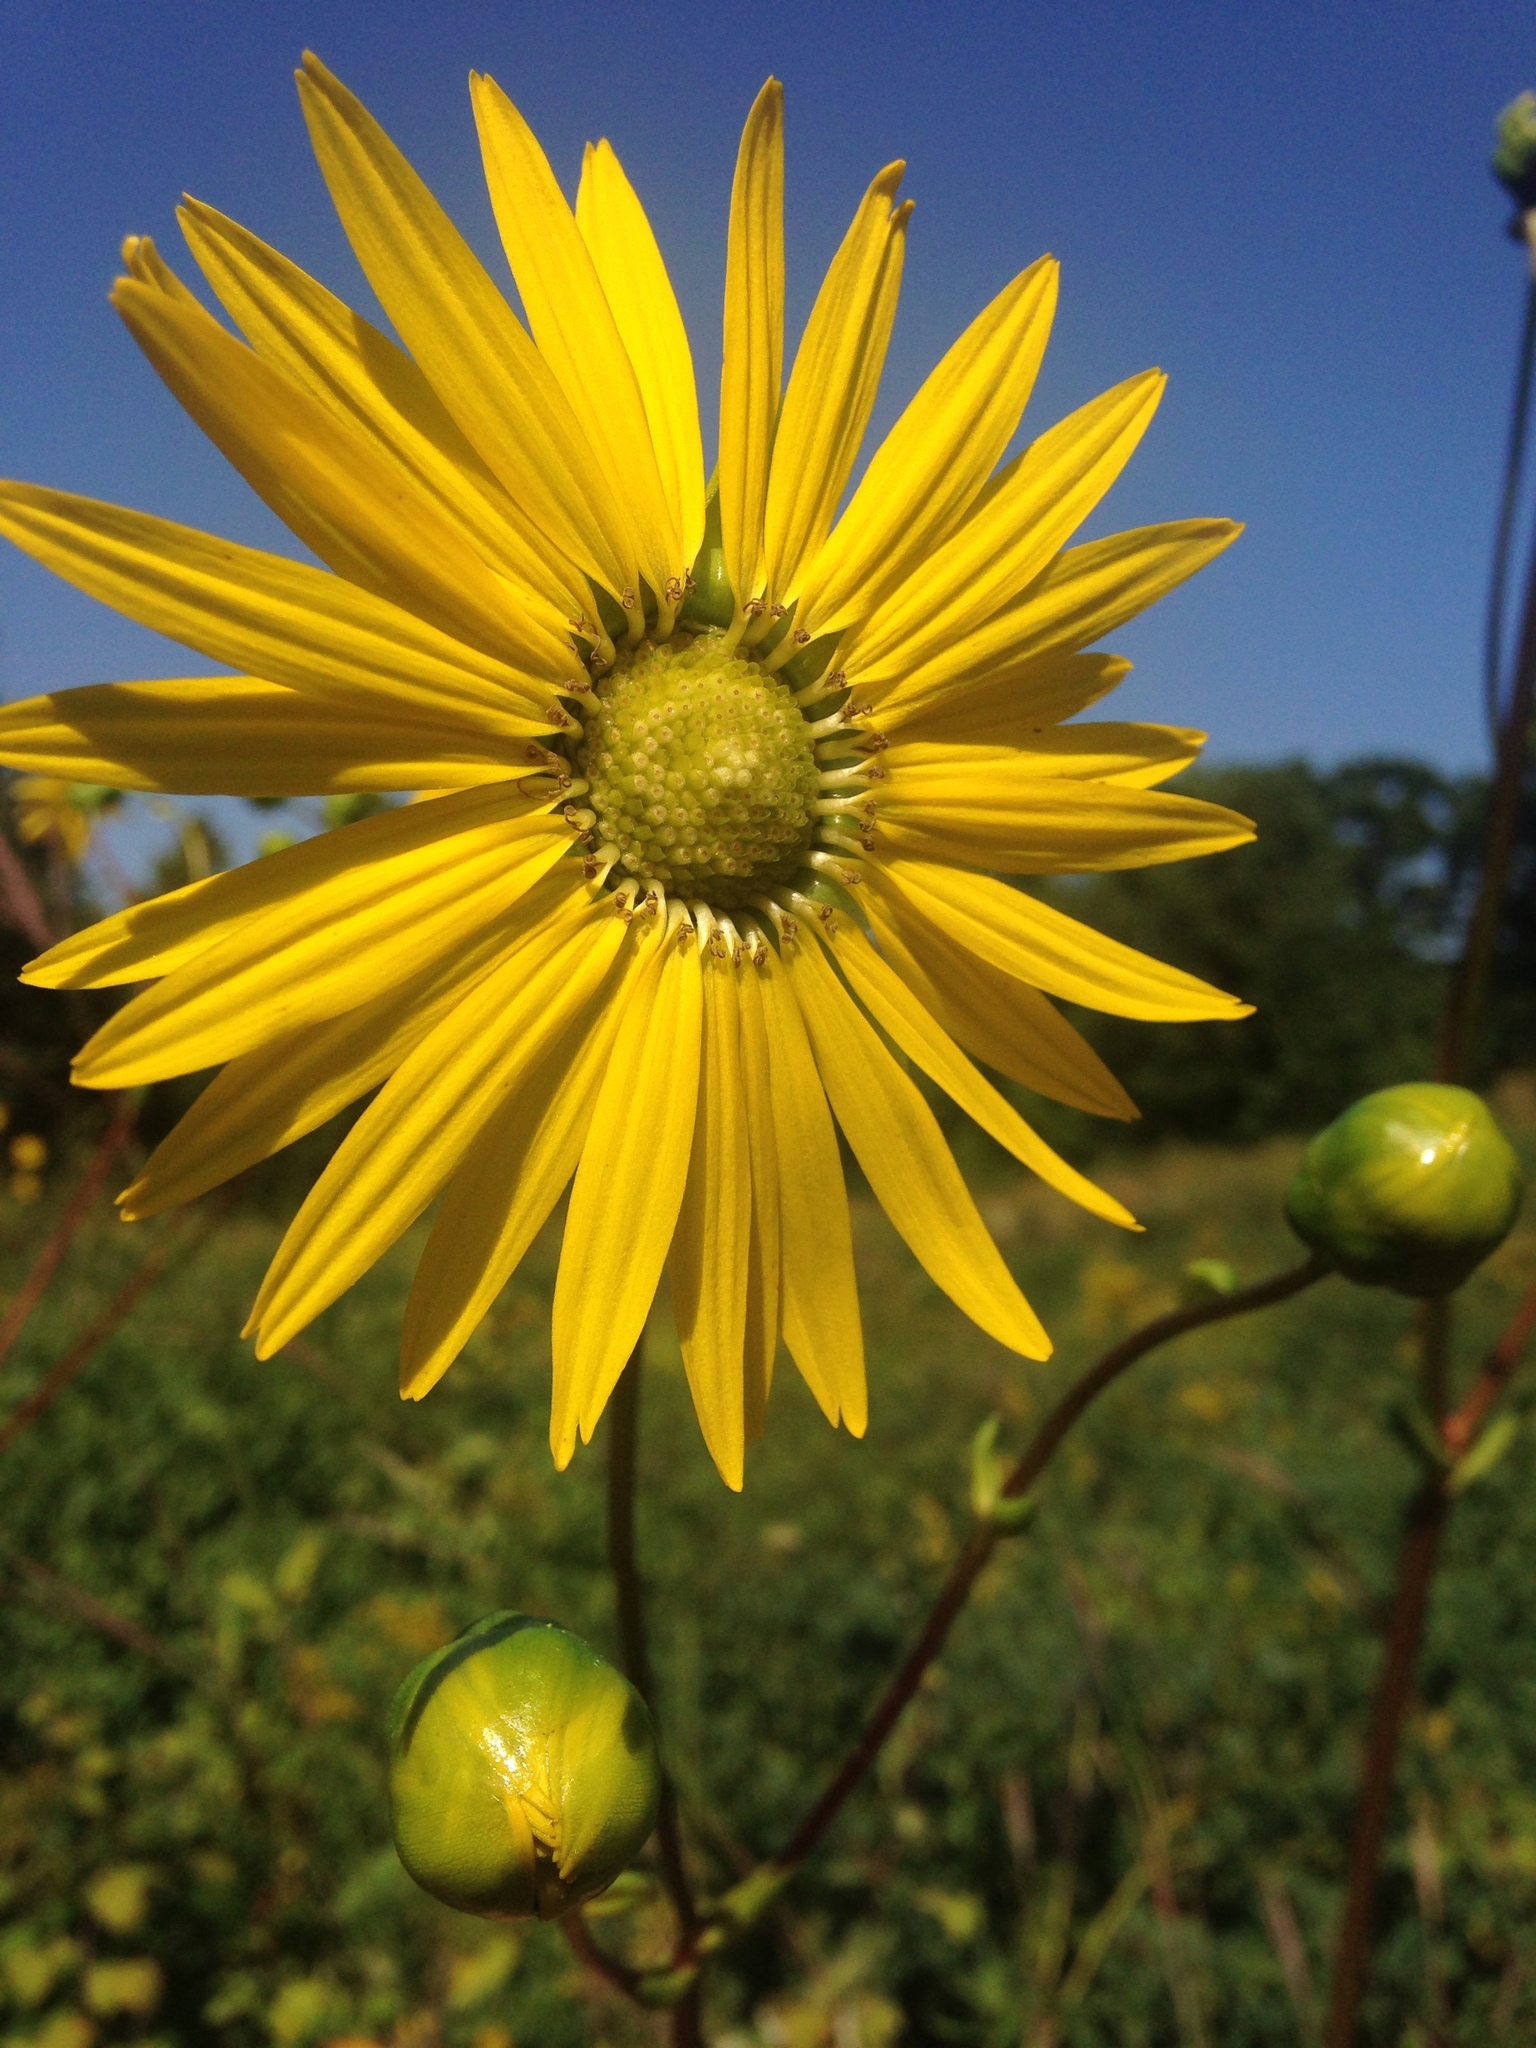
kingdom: Plantae
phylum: Tracheophyta
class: Magnoliopsida
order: Asterales
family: Asteraceae
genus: Silphium
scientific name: Silphium terebinthinaceum
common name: Basal-leaf rosinweed
